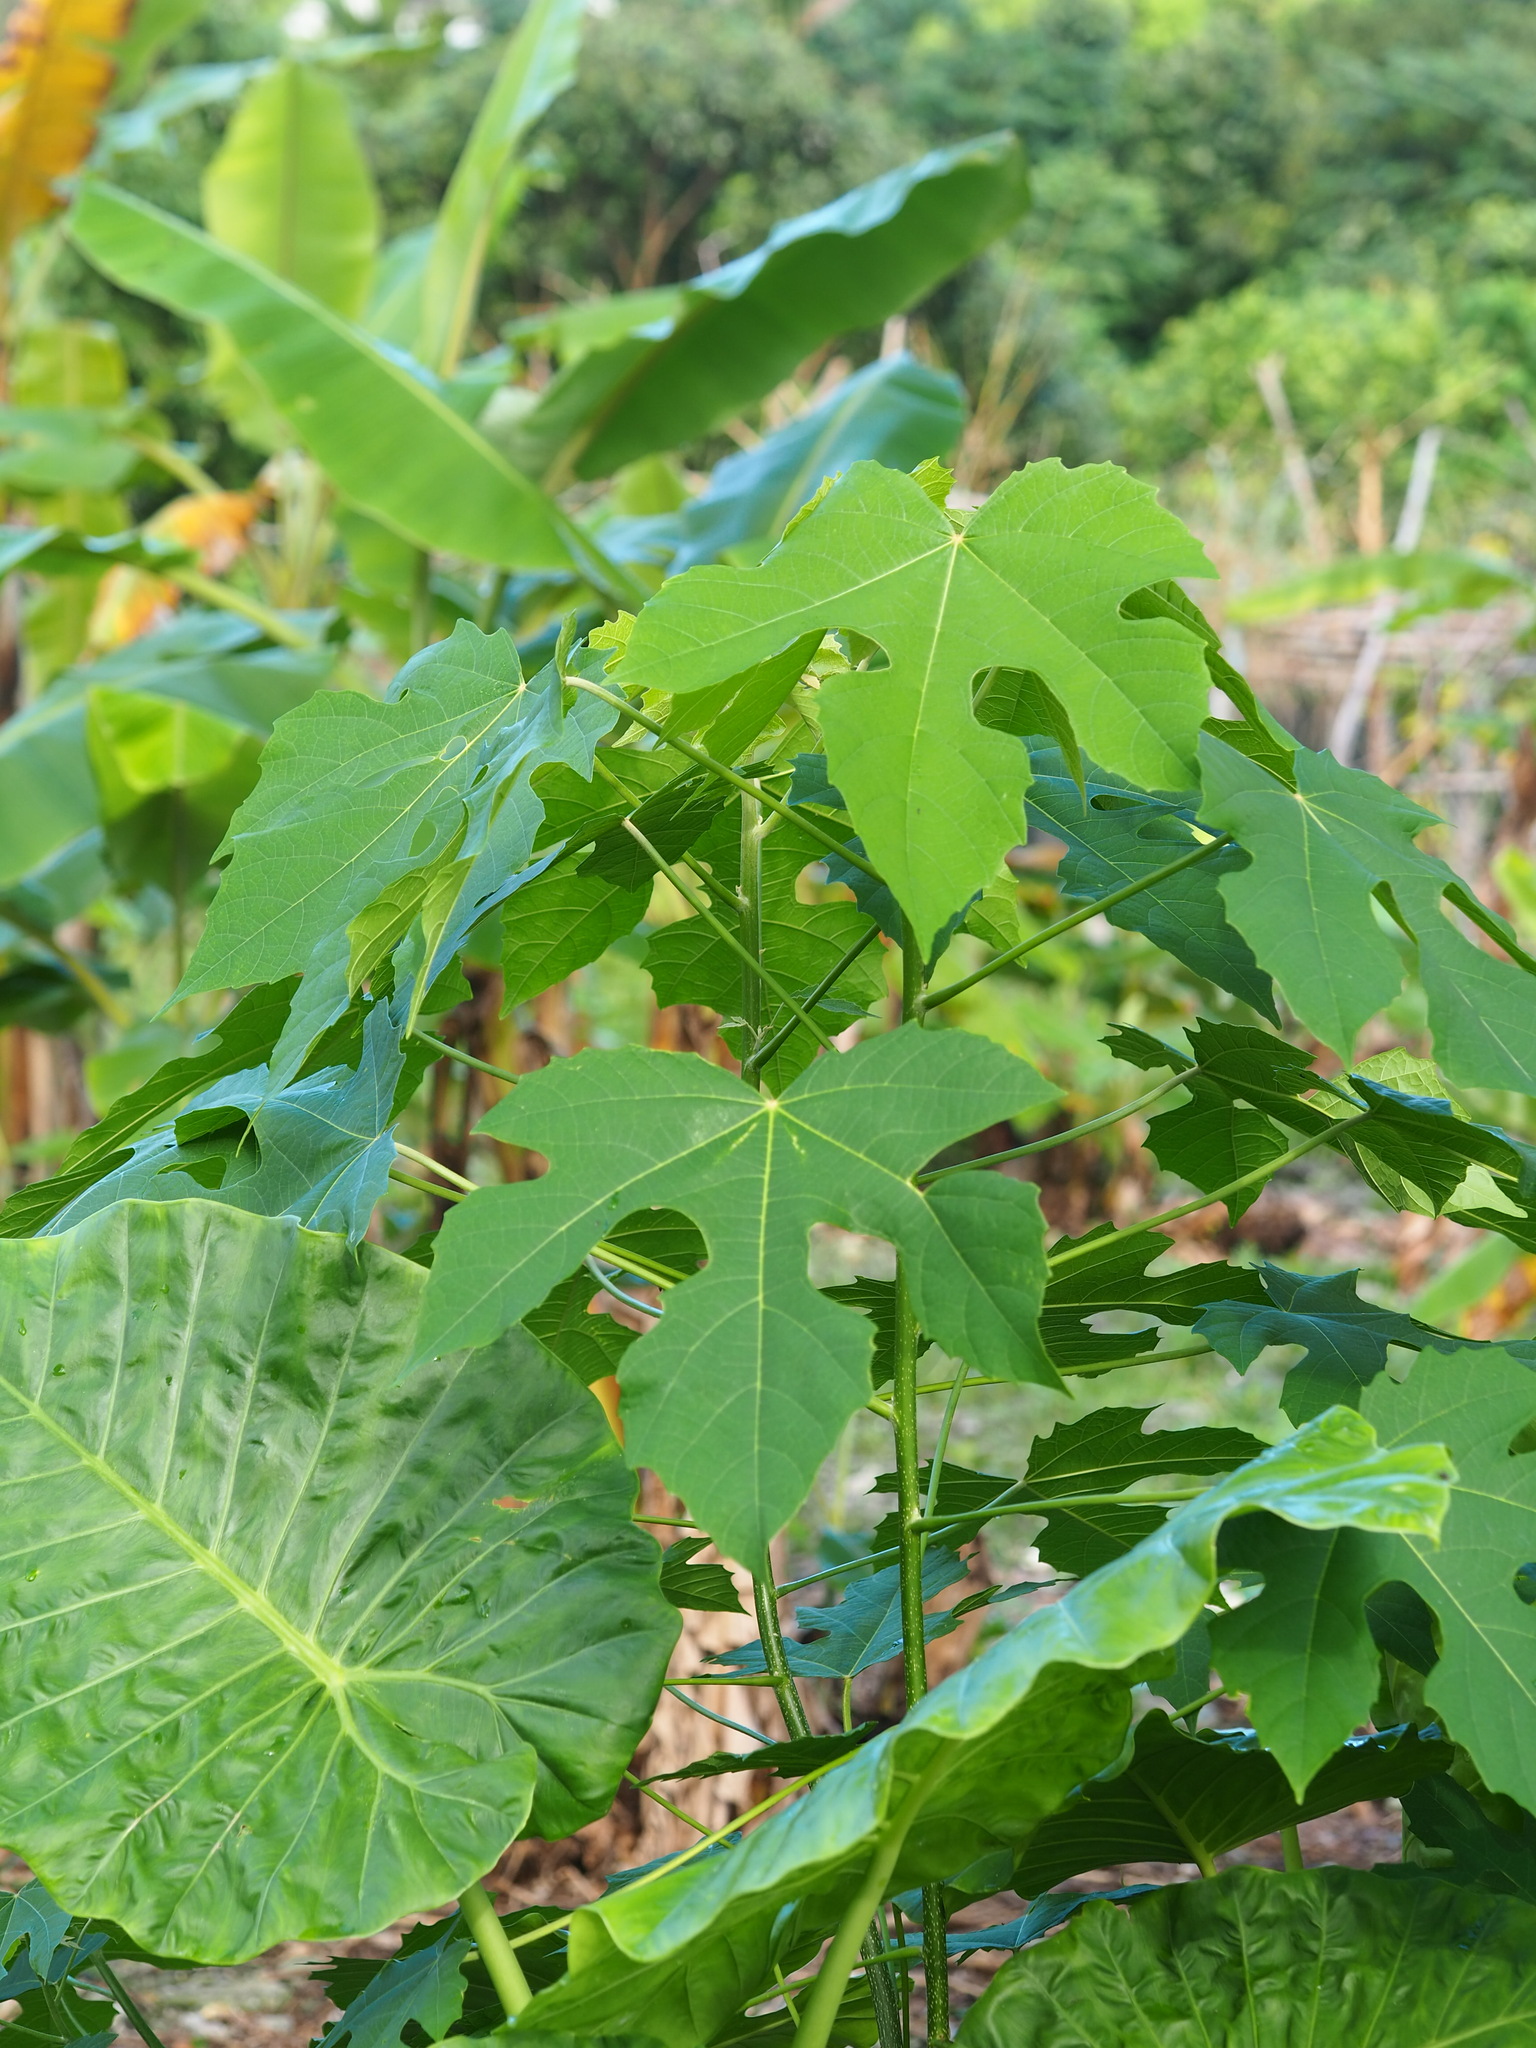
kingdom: Plantae
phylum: Tracheophyta
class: Magnoliopsida
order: Malpighiales
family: Euphorbiaceae
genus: Melanolepis
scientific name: Melanolepis multiglandulosa
